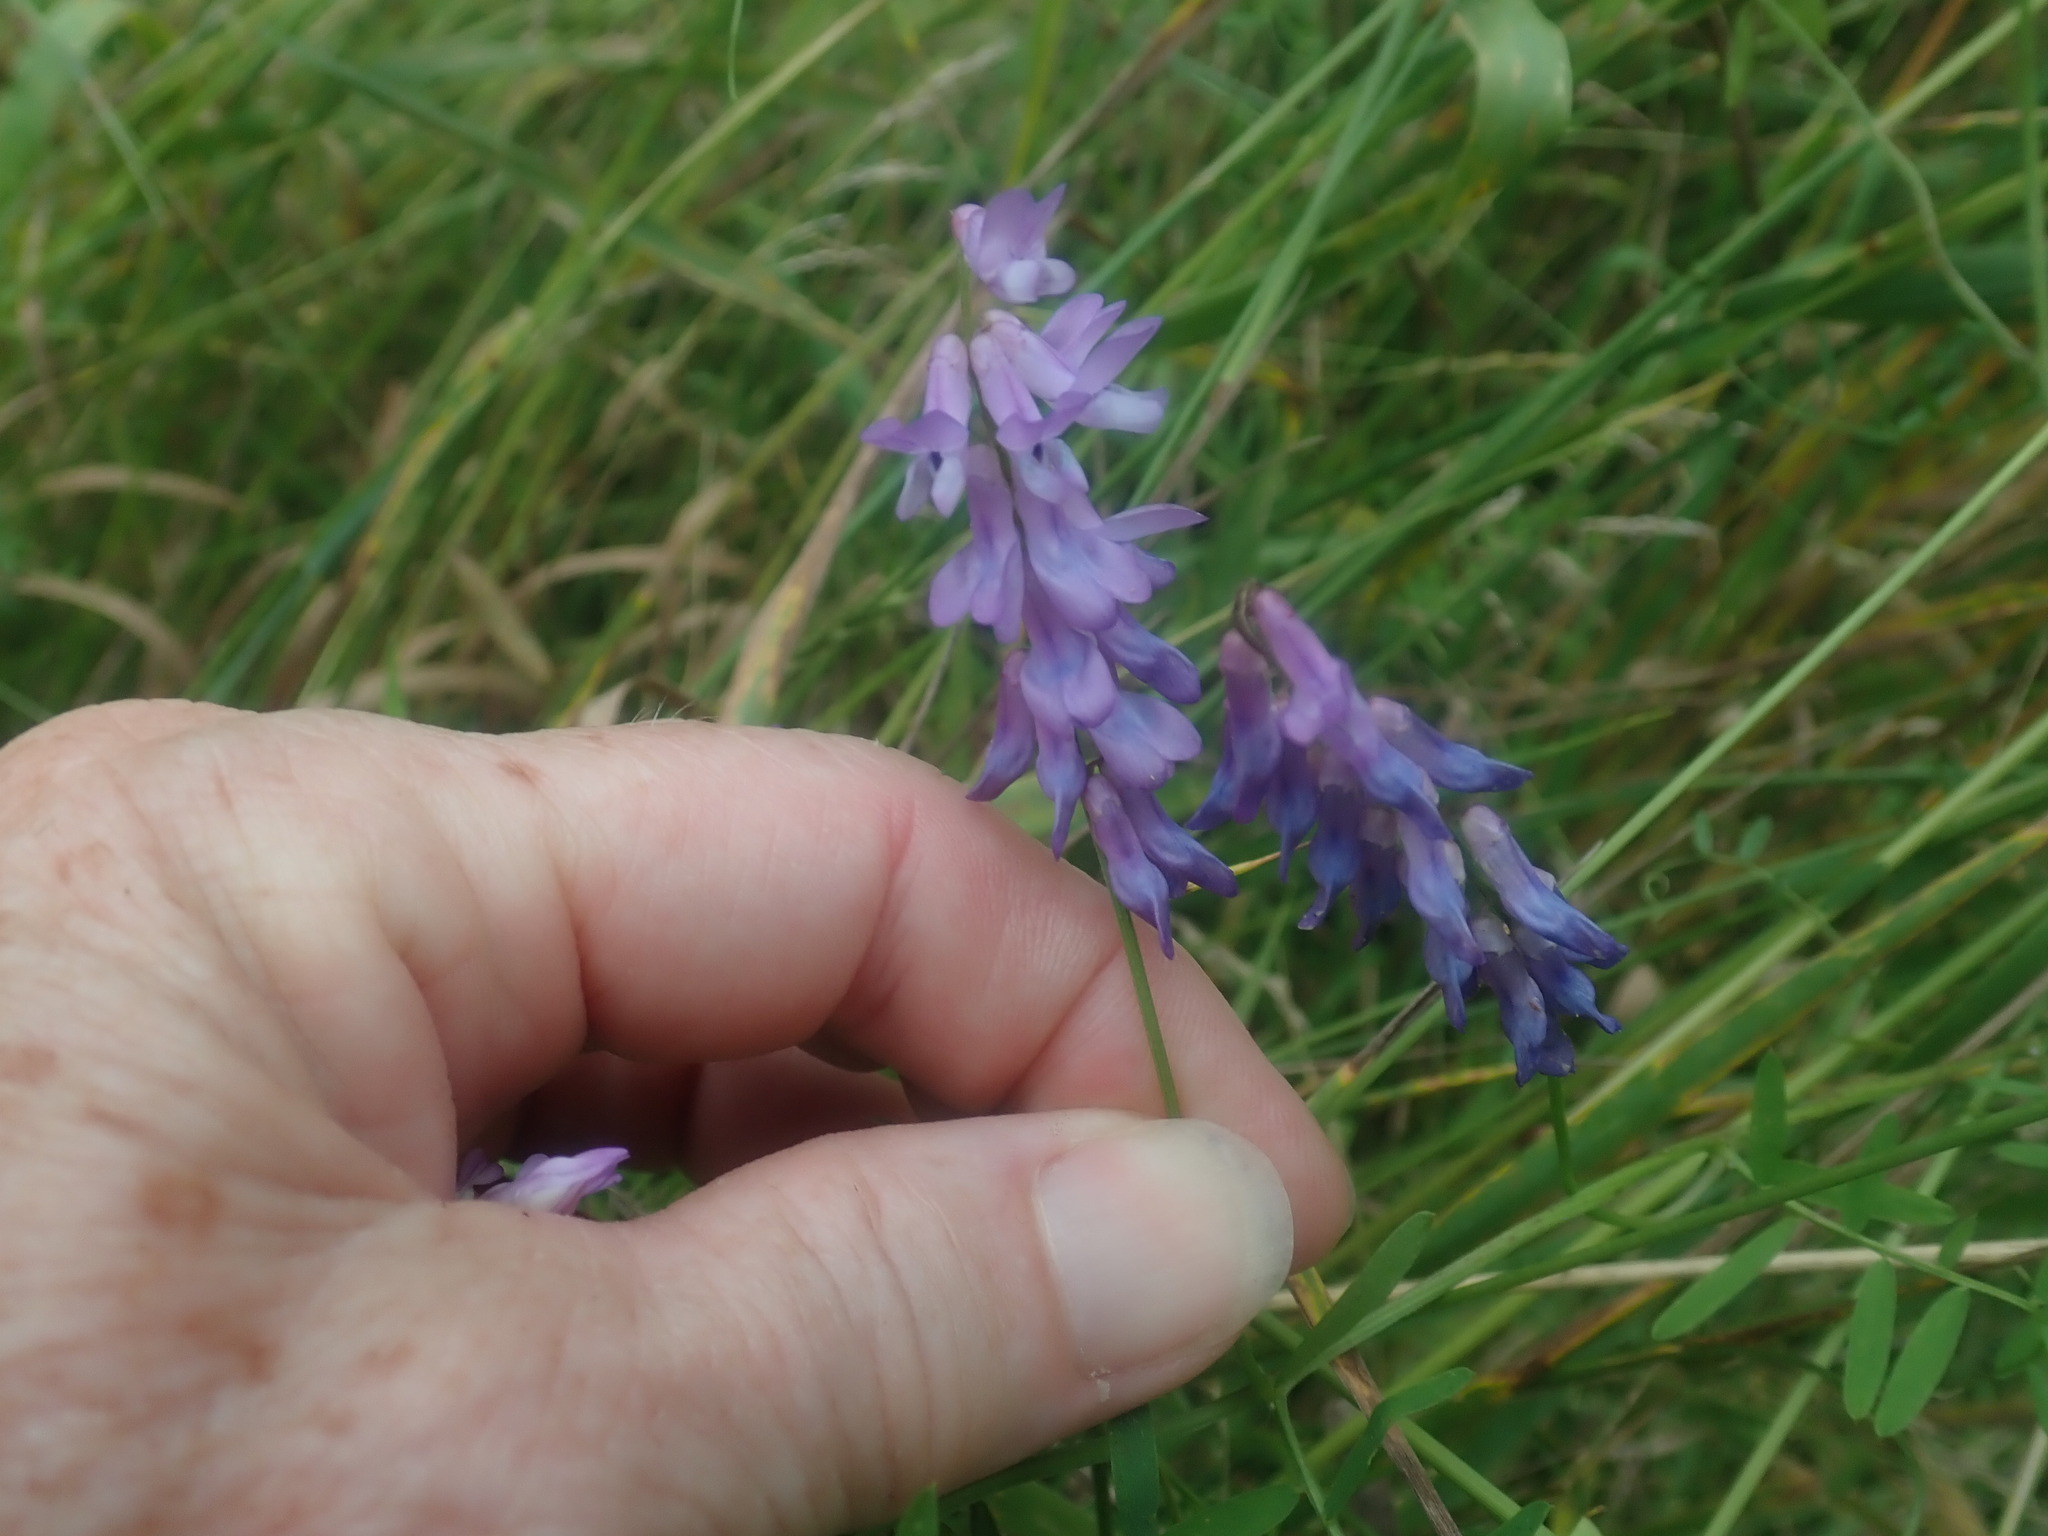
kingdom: Plantae
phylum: Tracheophyta
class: Magnoliopsida
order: Fabales
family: Fabaceae
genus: Vicia
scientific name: Vicia cracca
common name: Bird vetch
